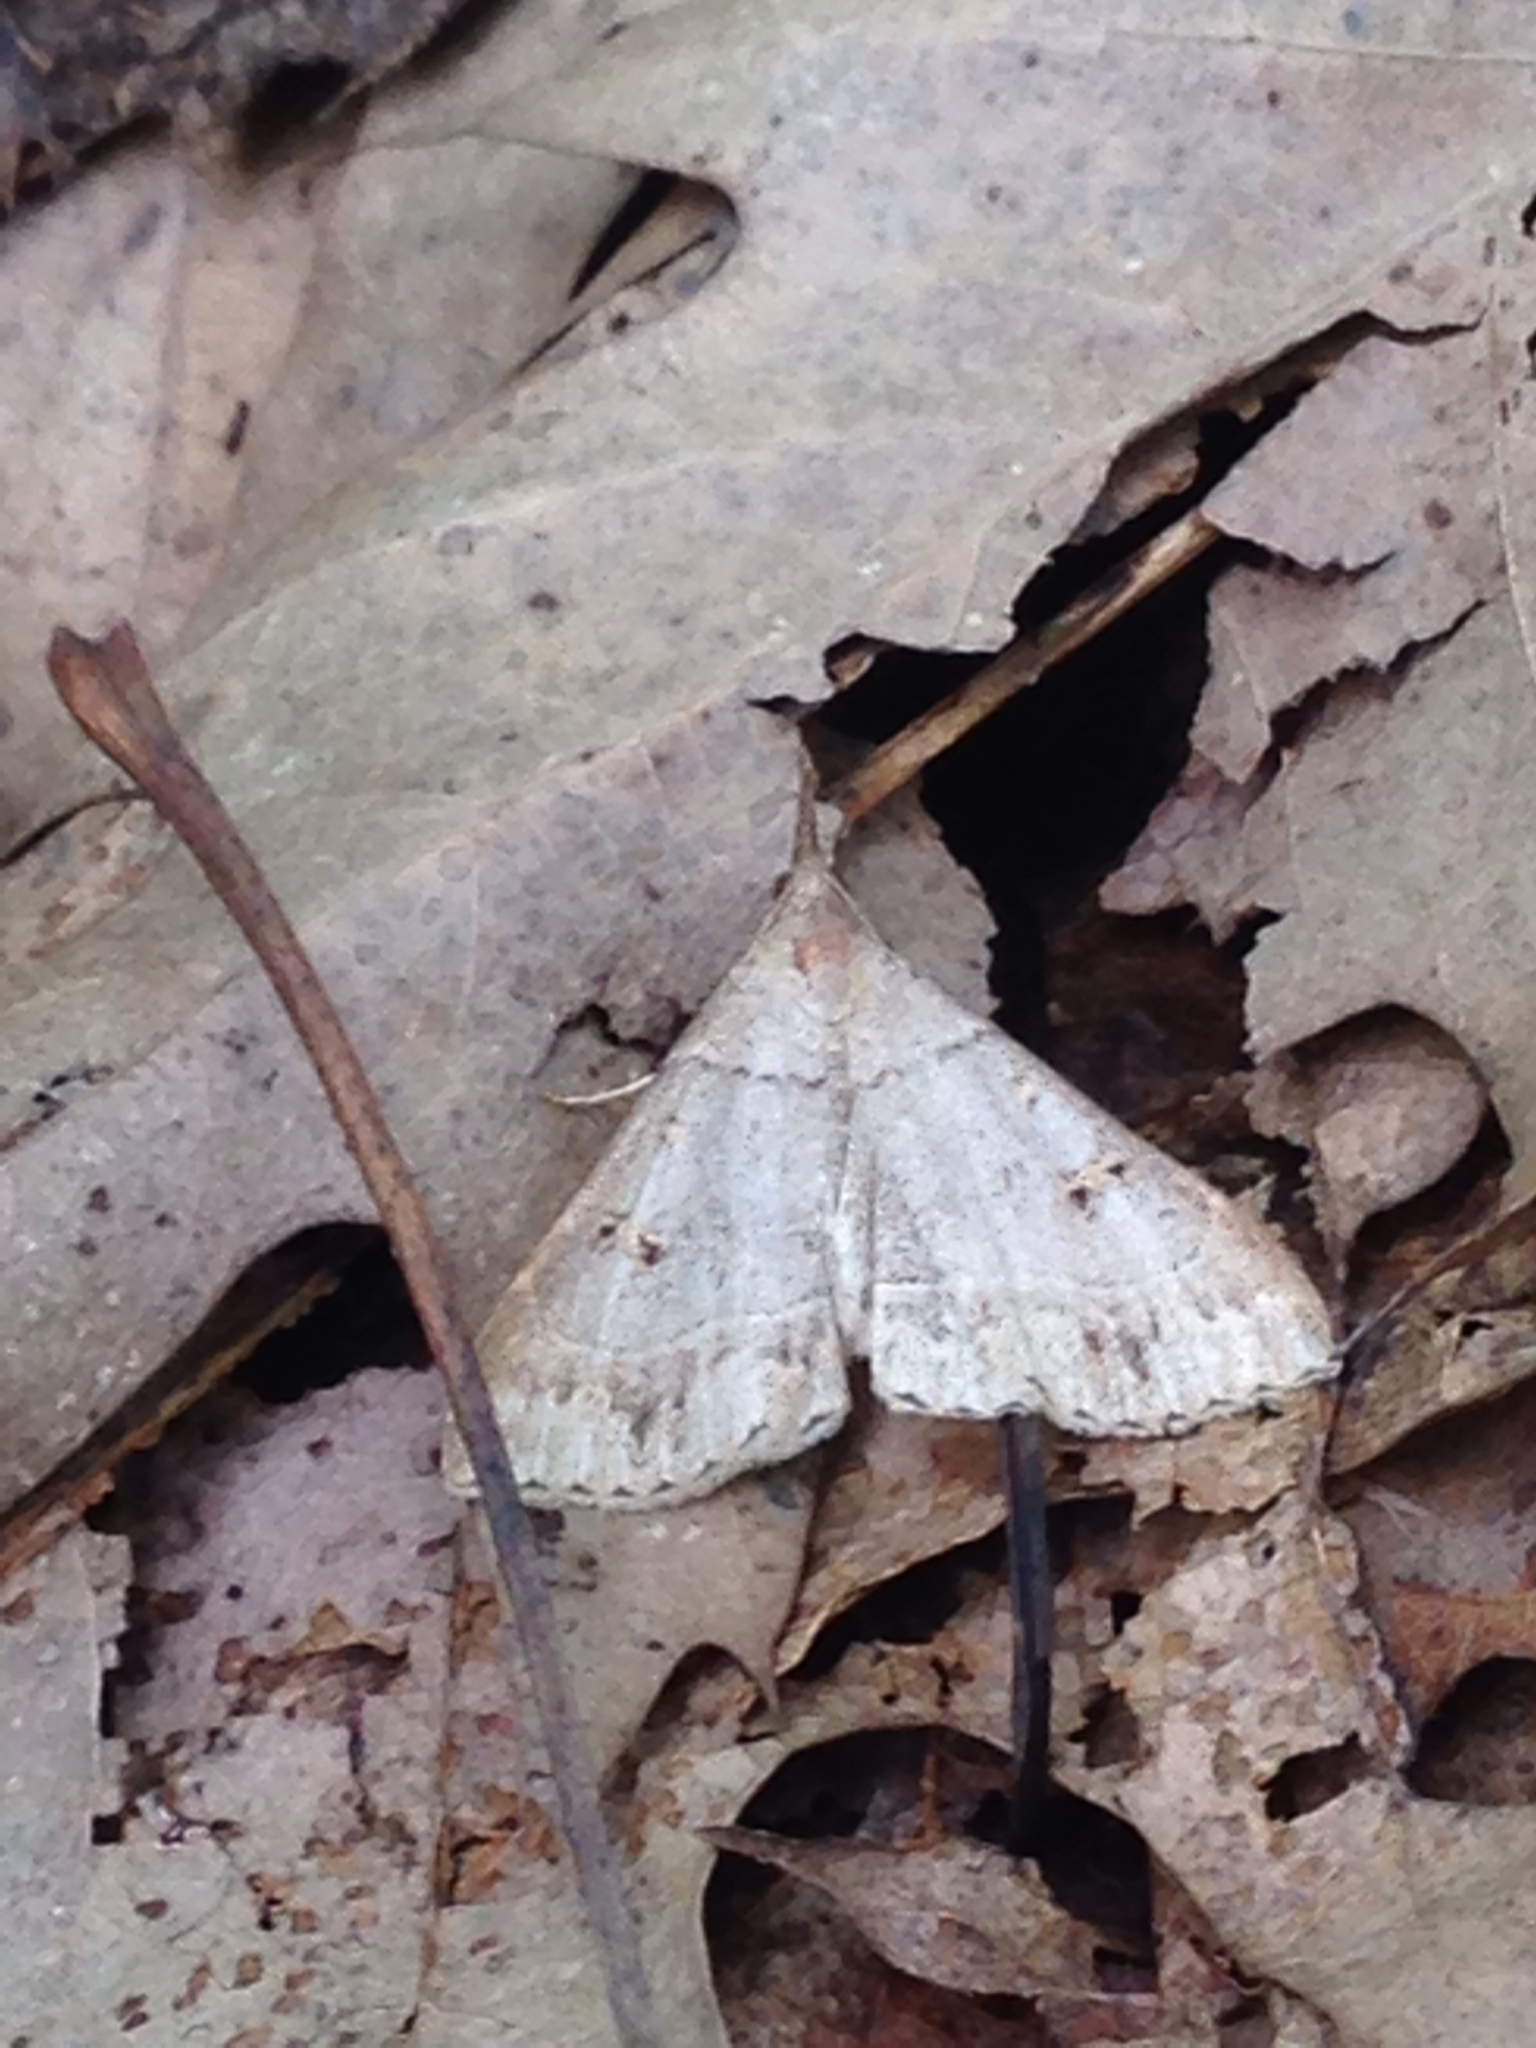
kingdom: Animalia
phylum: Arthropoda
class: Insecta
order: Lepidoptera
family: Erebidae
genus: Renia
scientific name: Renia flavipunctalis
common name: Yellow-spotted renia moth
